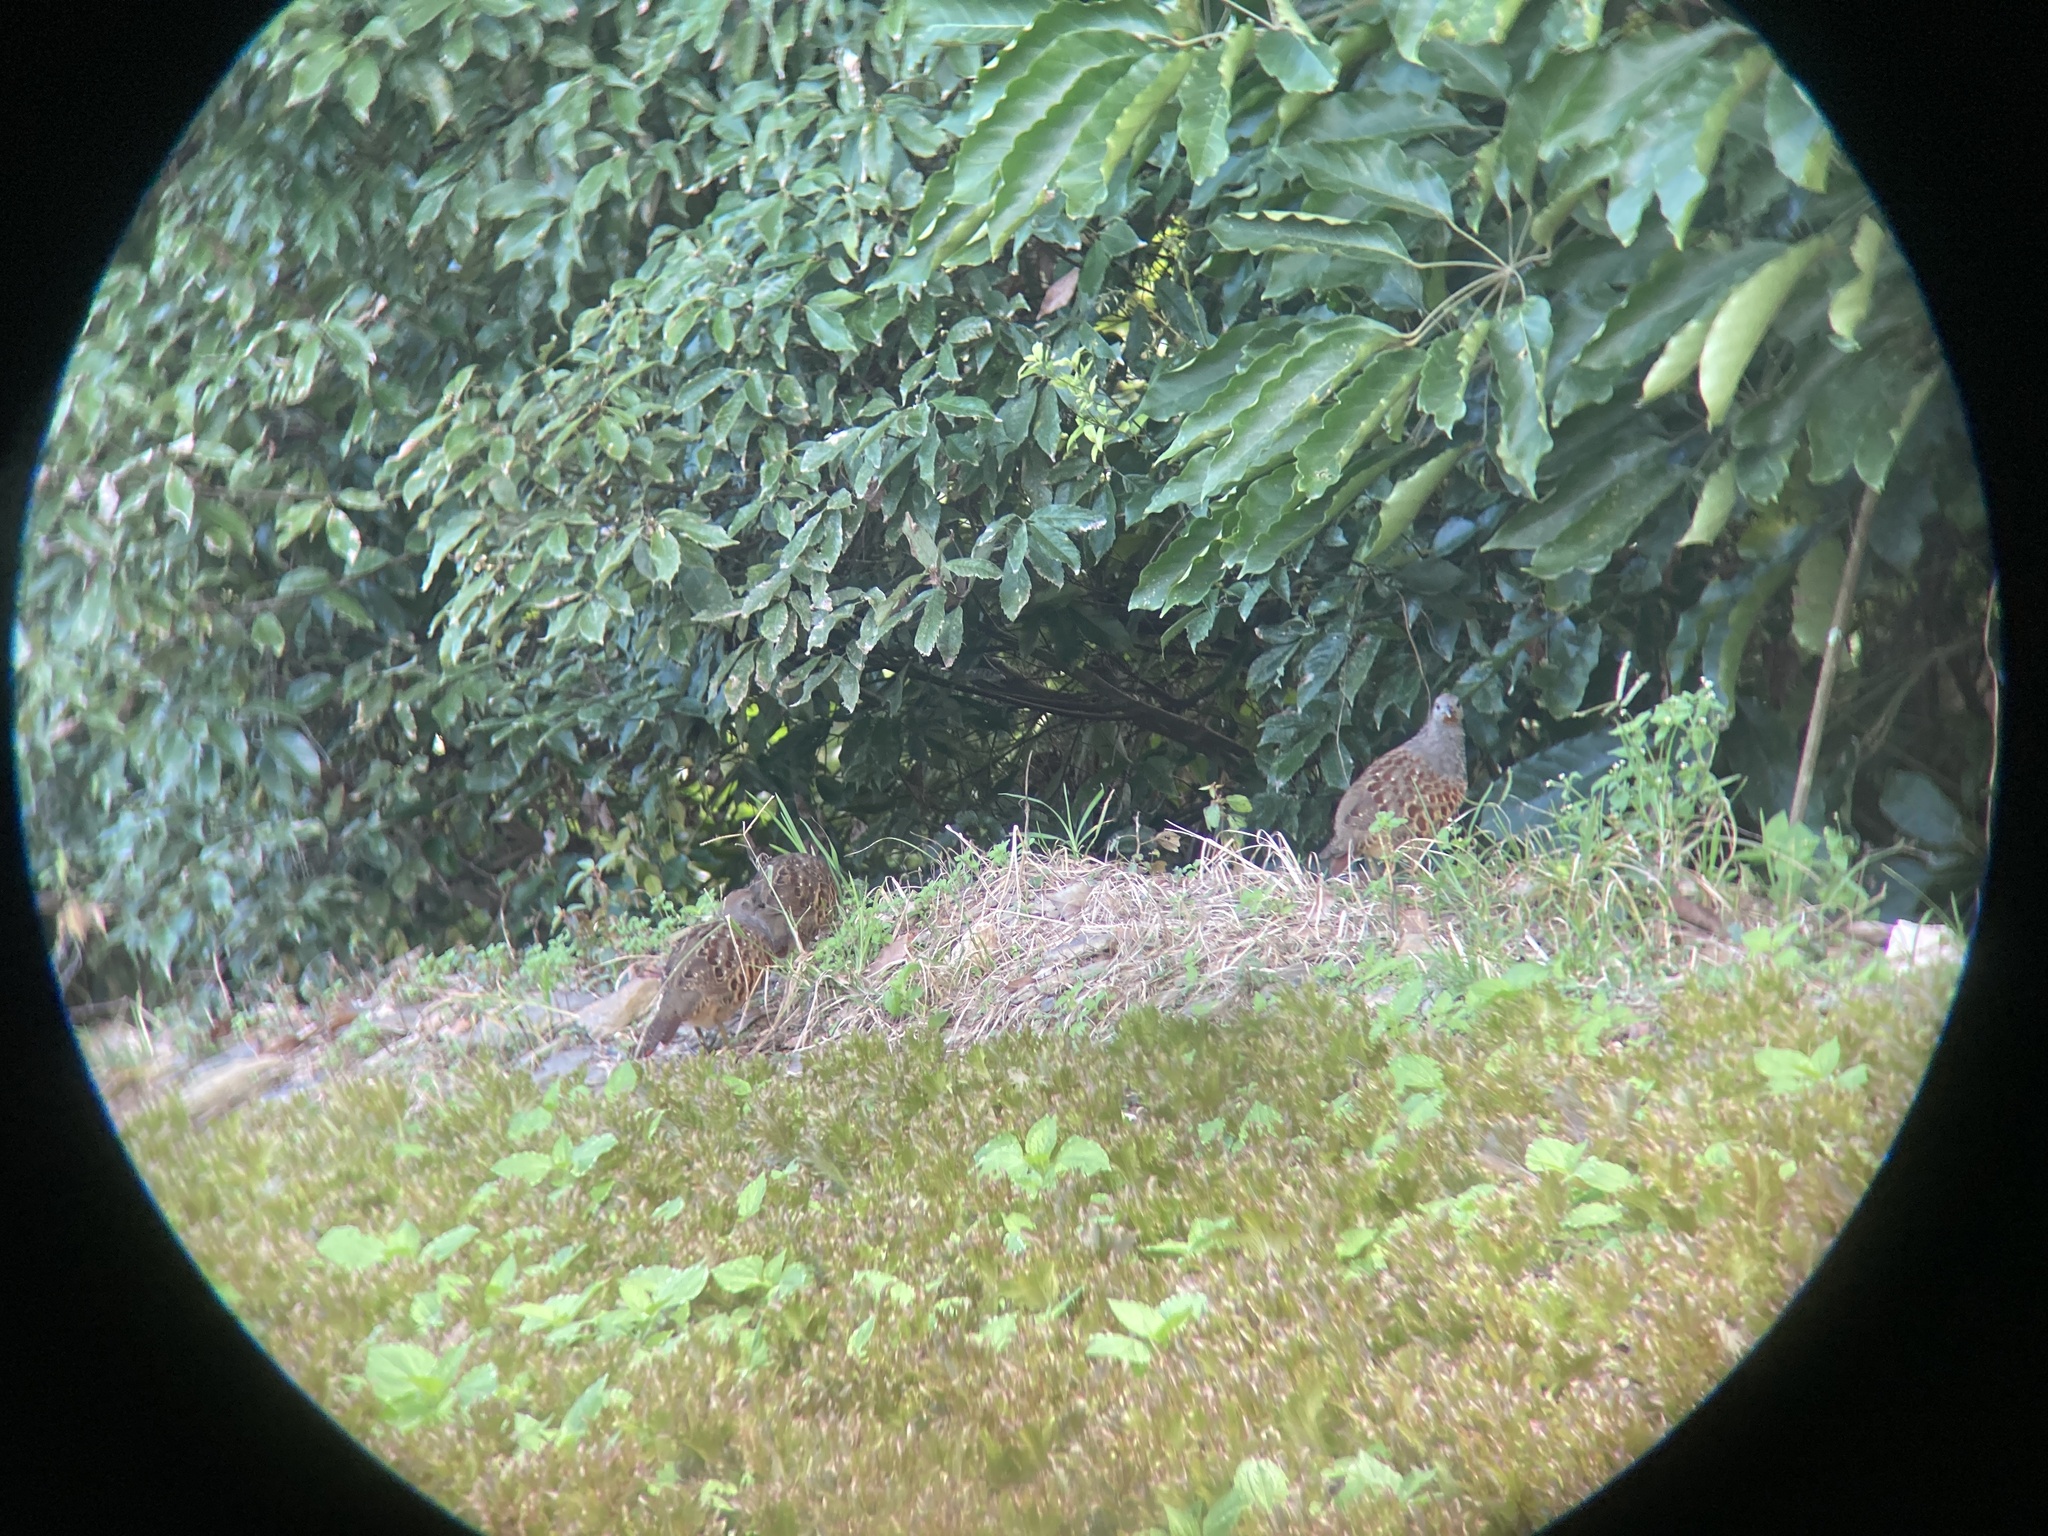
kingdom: Animalia
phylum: Chordata
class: Aves
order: Galliformes
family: Phasianidae
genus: Bambusicola
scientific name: Bambusicola sonorivox
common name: Taiwan bamboo-partridge
